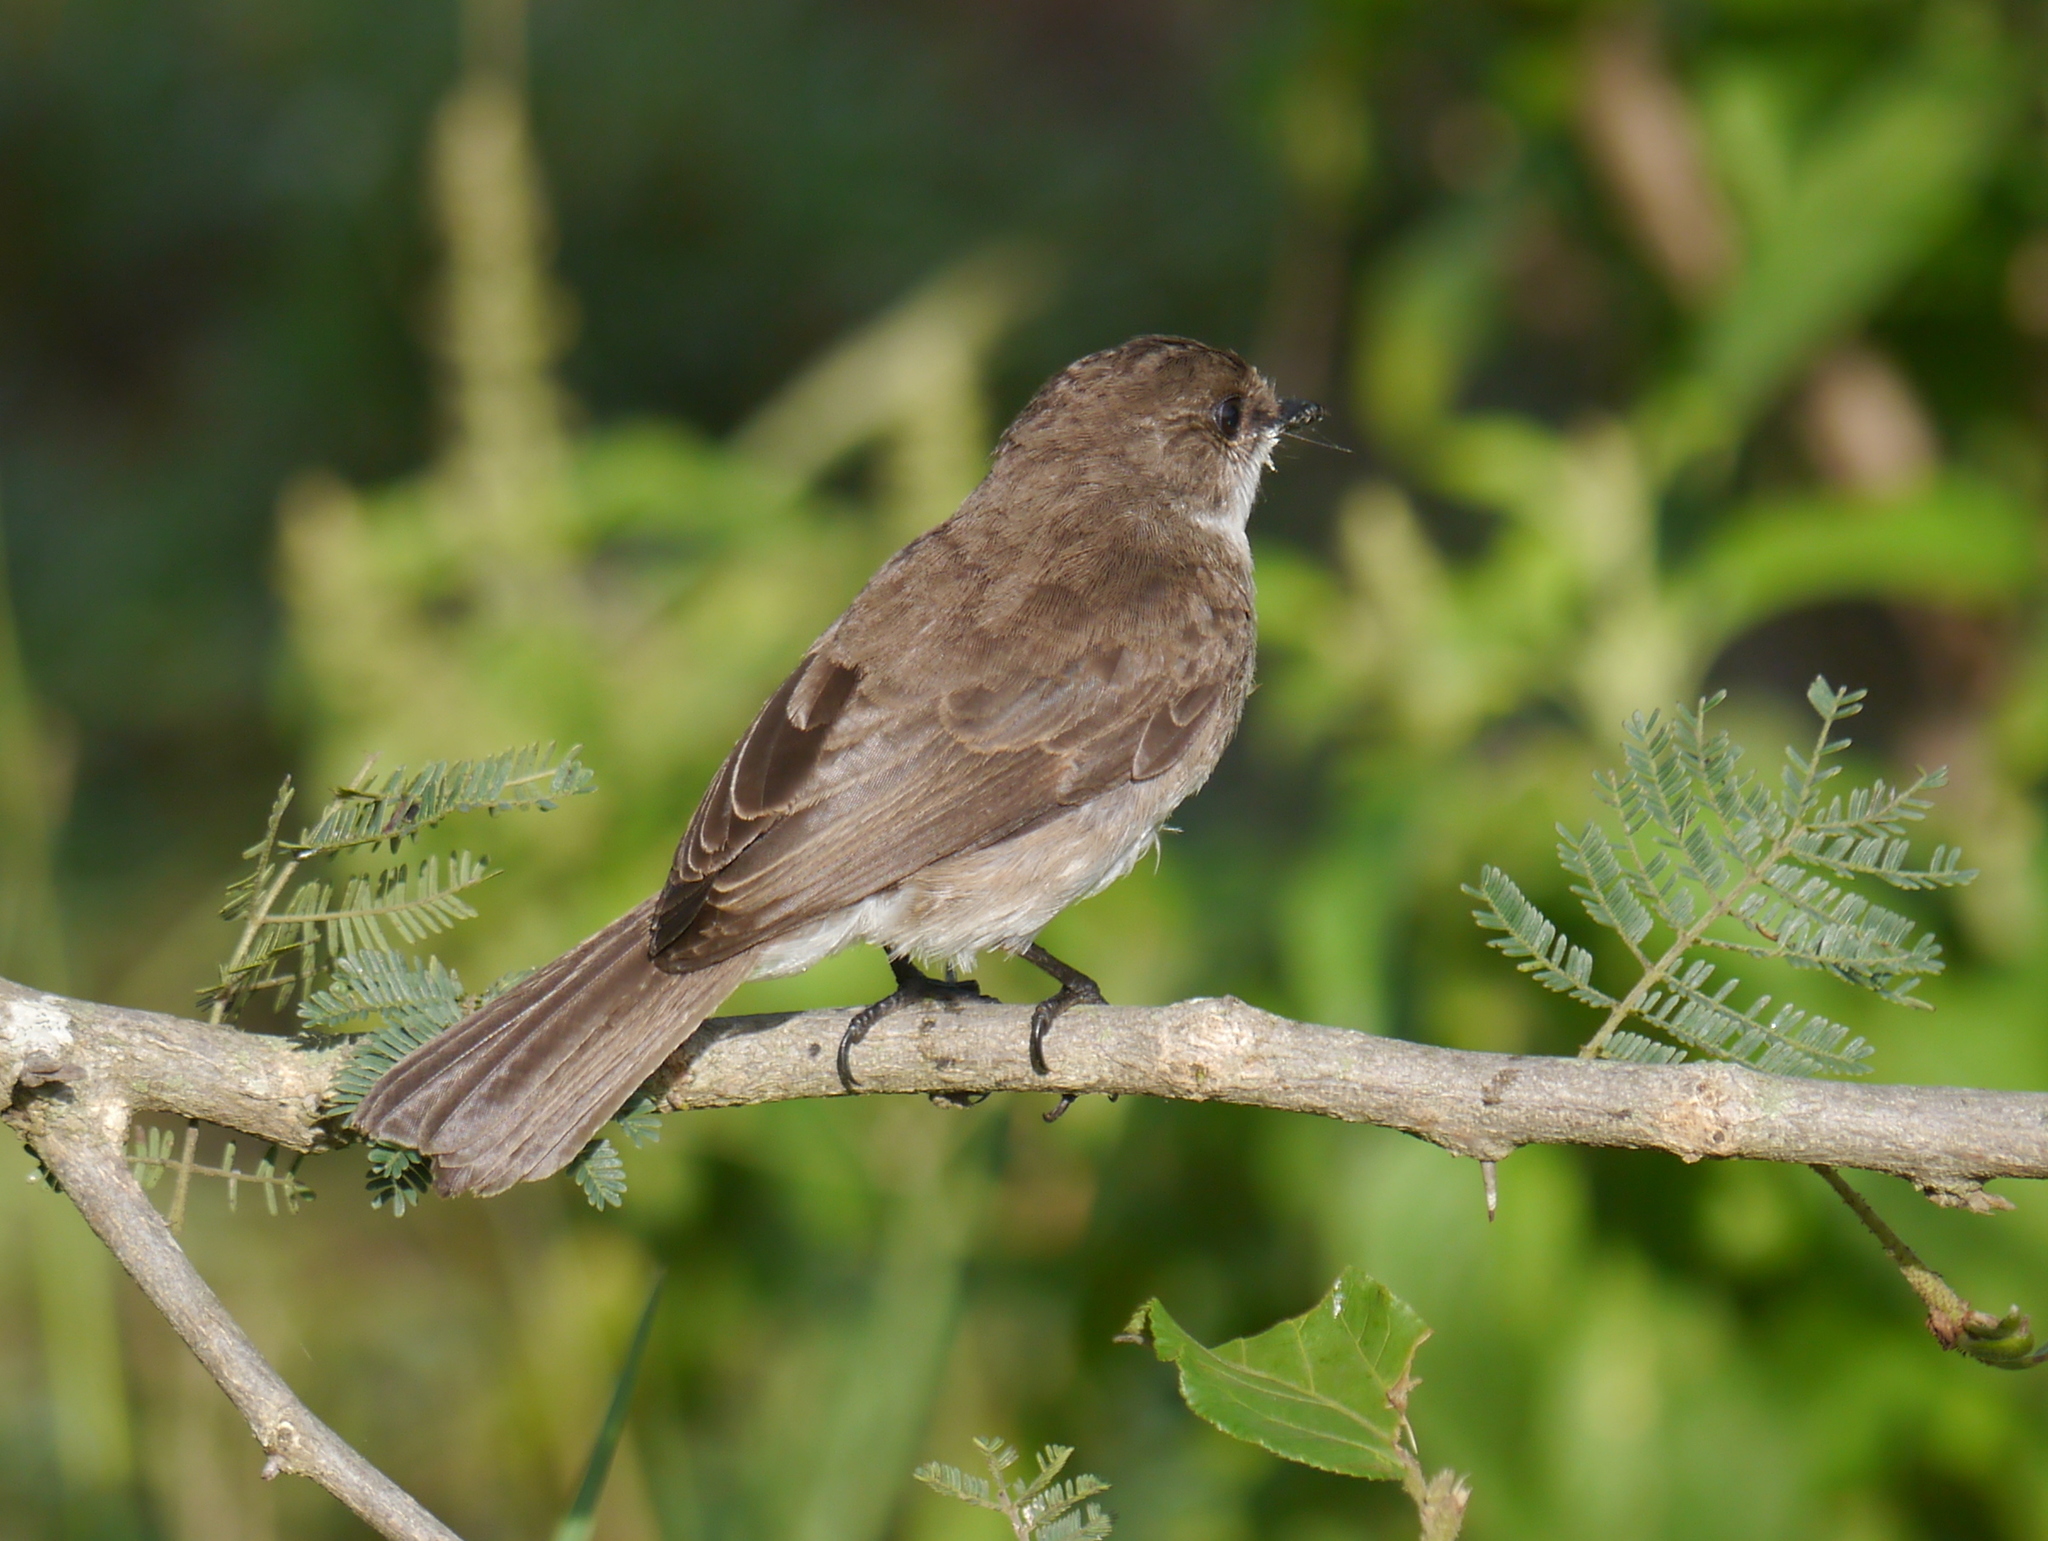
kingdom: Animalia
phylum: Chordata
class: Aves
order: Passeriformes
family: Muscicapidae
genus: Muscicapa
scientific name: Muscicapa aquatica
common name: Swamp flycatcher
